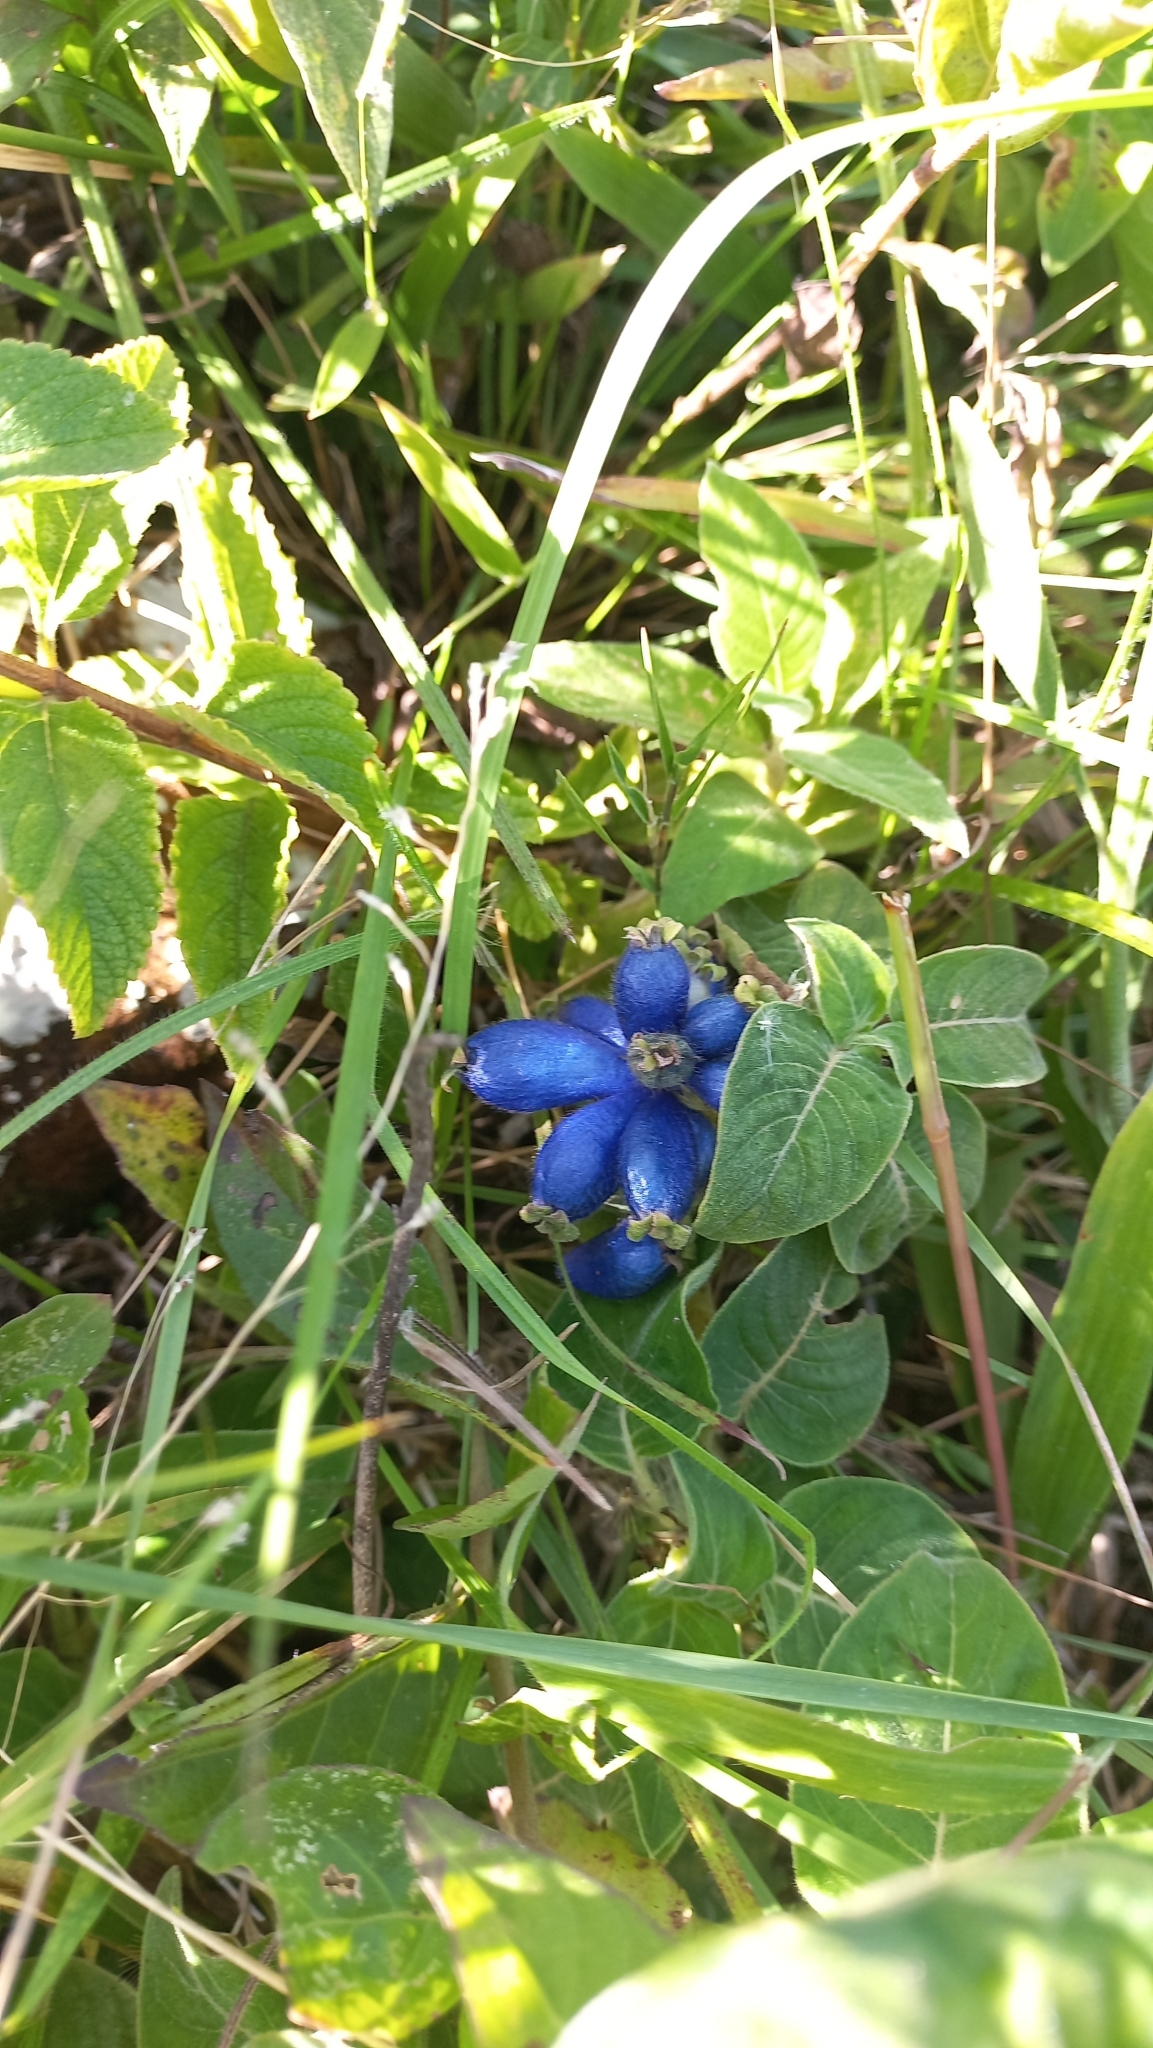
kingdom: Plantae
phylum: Tracheophyta
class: Magnoliopsida
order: Gentianales
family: Rubiaceae
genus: Coccocypselum
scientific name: Coccocypselum lanceolatum
